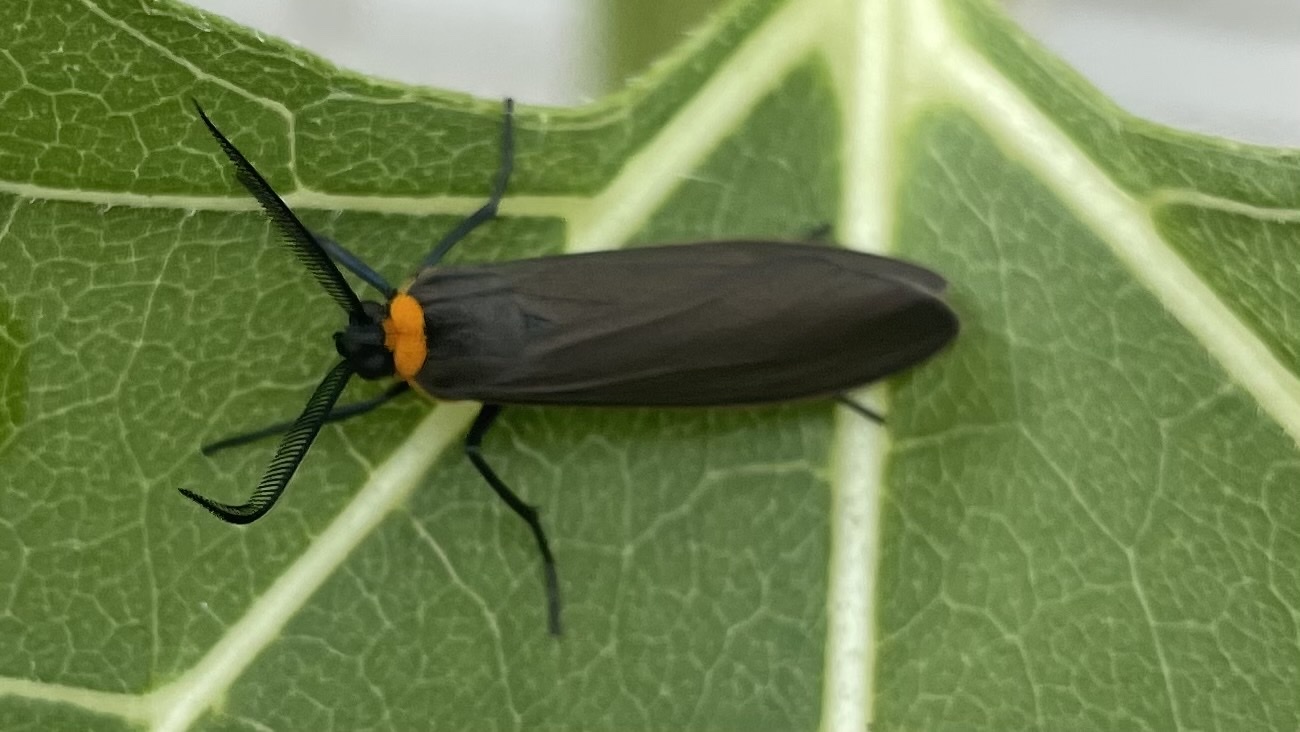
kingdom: Animalia
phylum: Arthropoda
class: Insecta
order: Lepidoptera
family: Erebidae
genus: Cisseps
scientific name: Cisseps fulvicollis
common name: Yellow-collared scape moth
